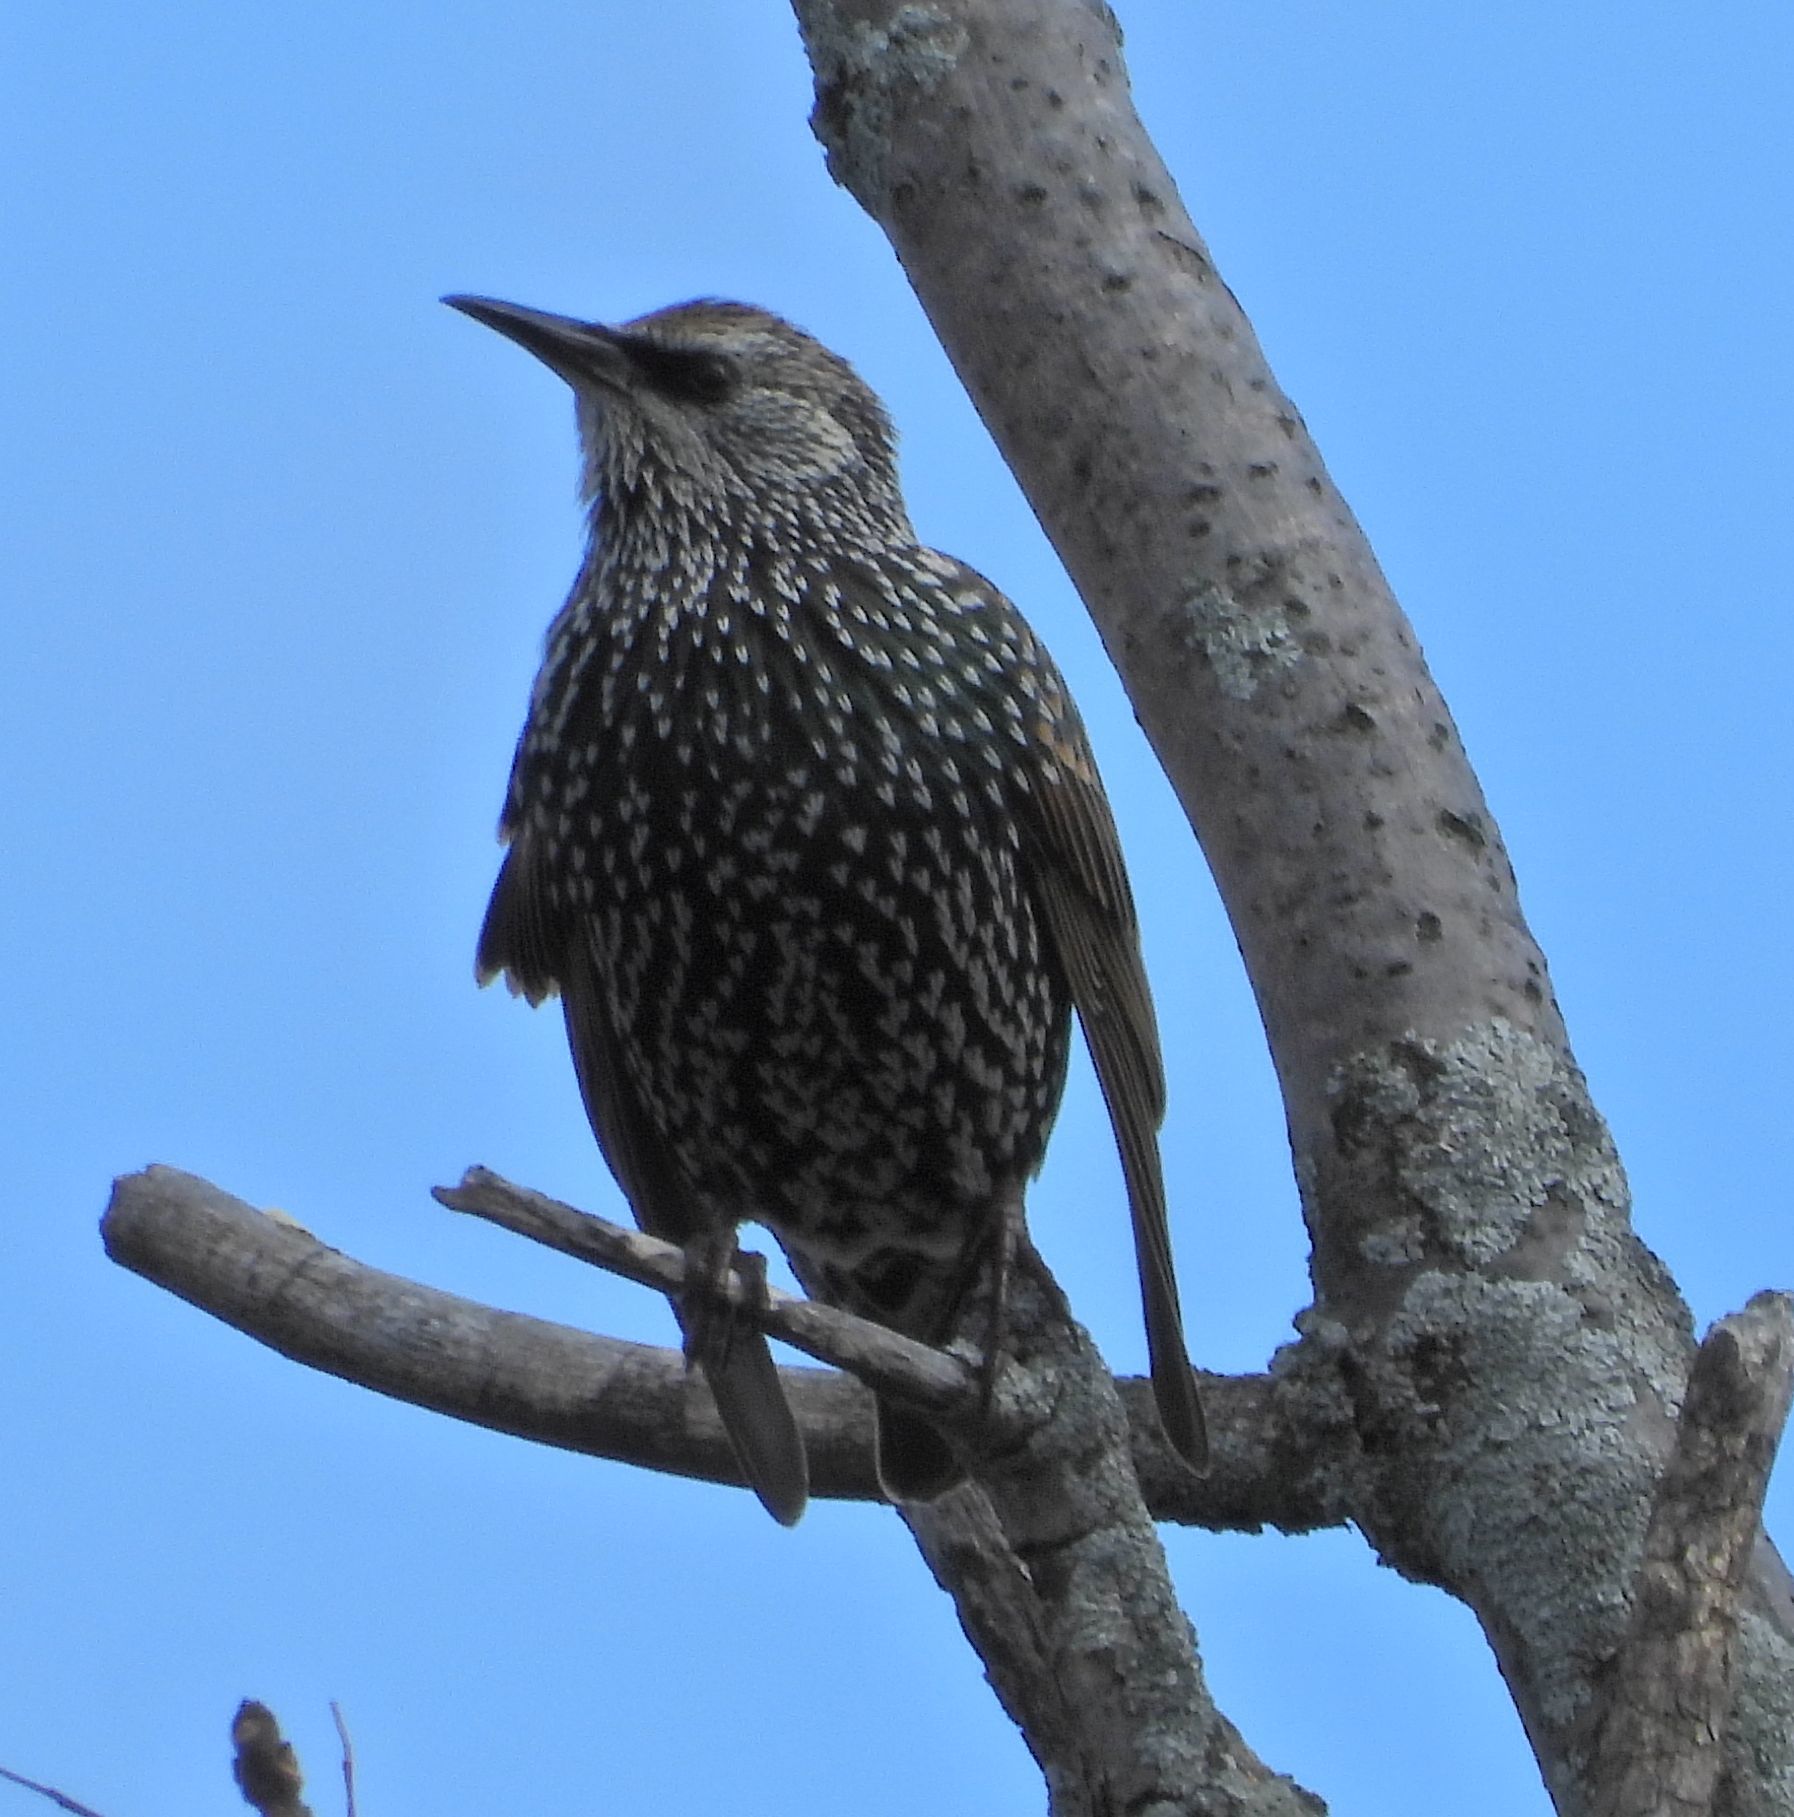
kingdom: Animalia
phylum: Chordata
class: Aves
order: Passeriformes
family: Sturnidae
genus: Sturnus
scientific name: Sturnus vulgaris
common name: Common starling
